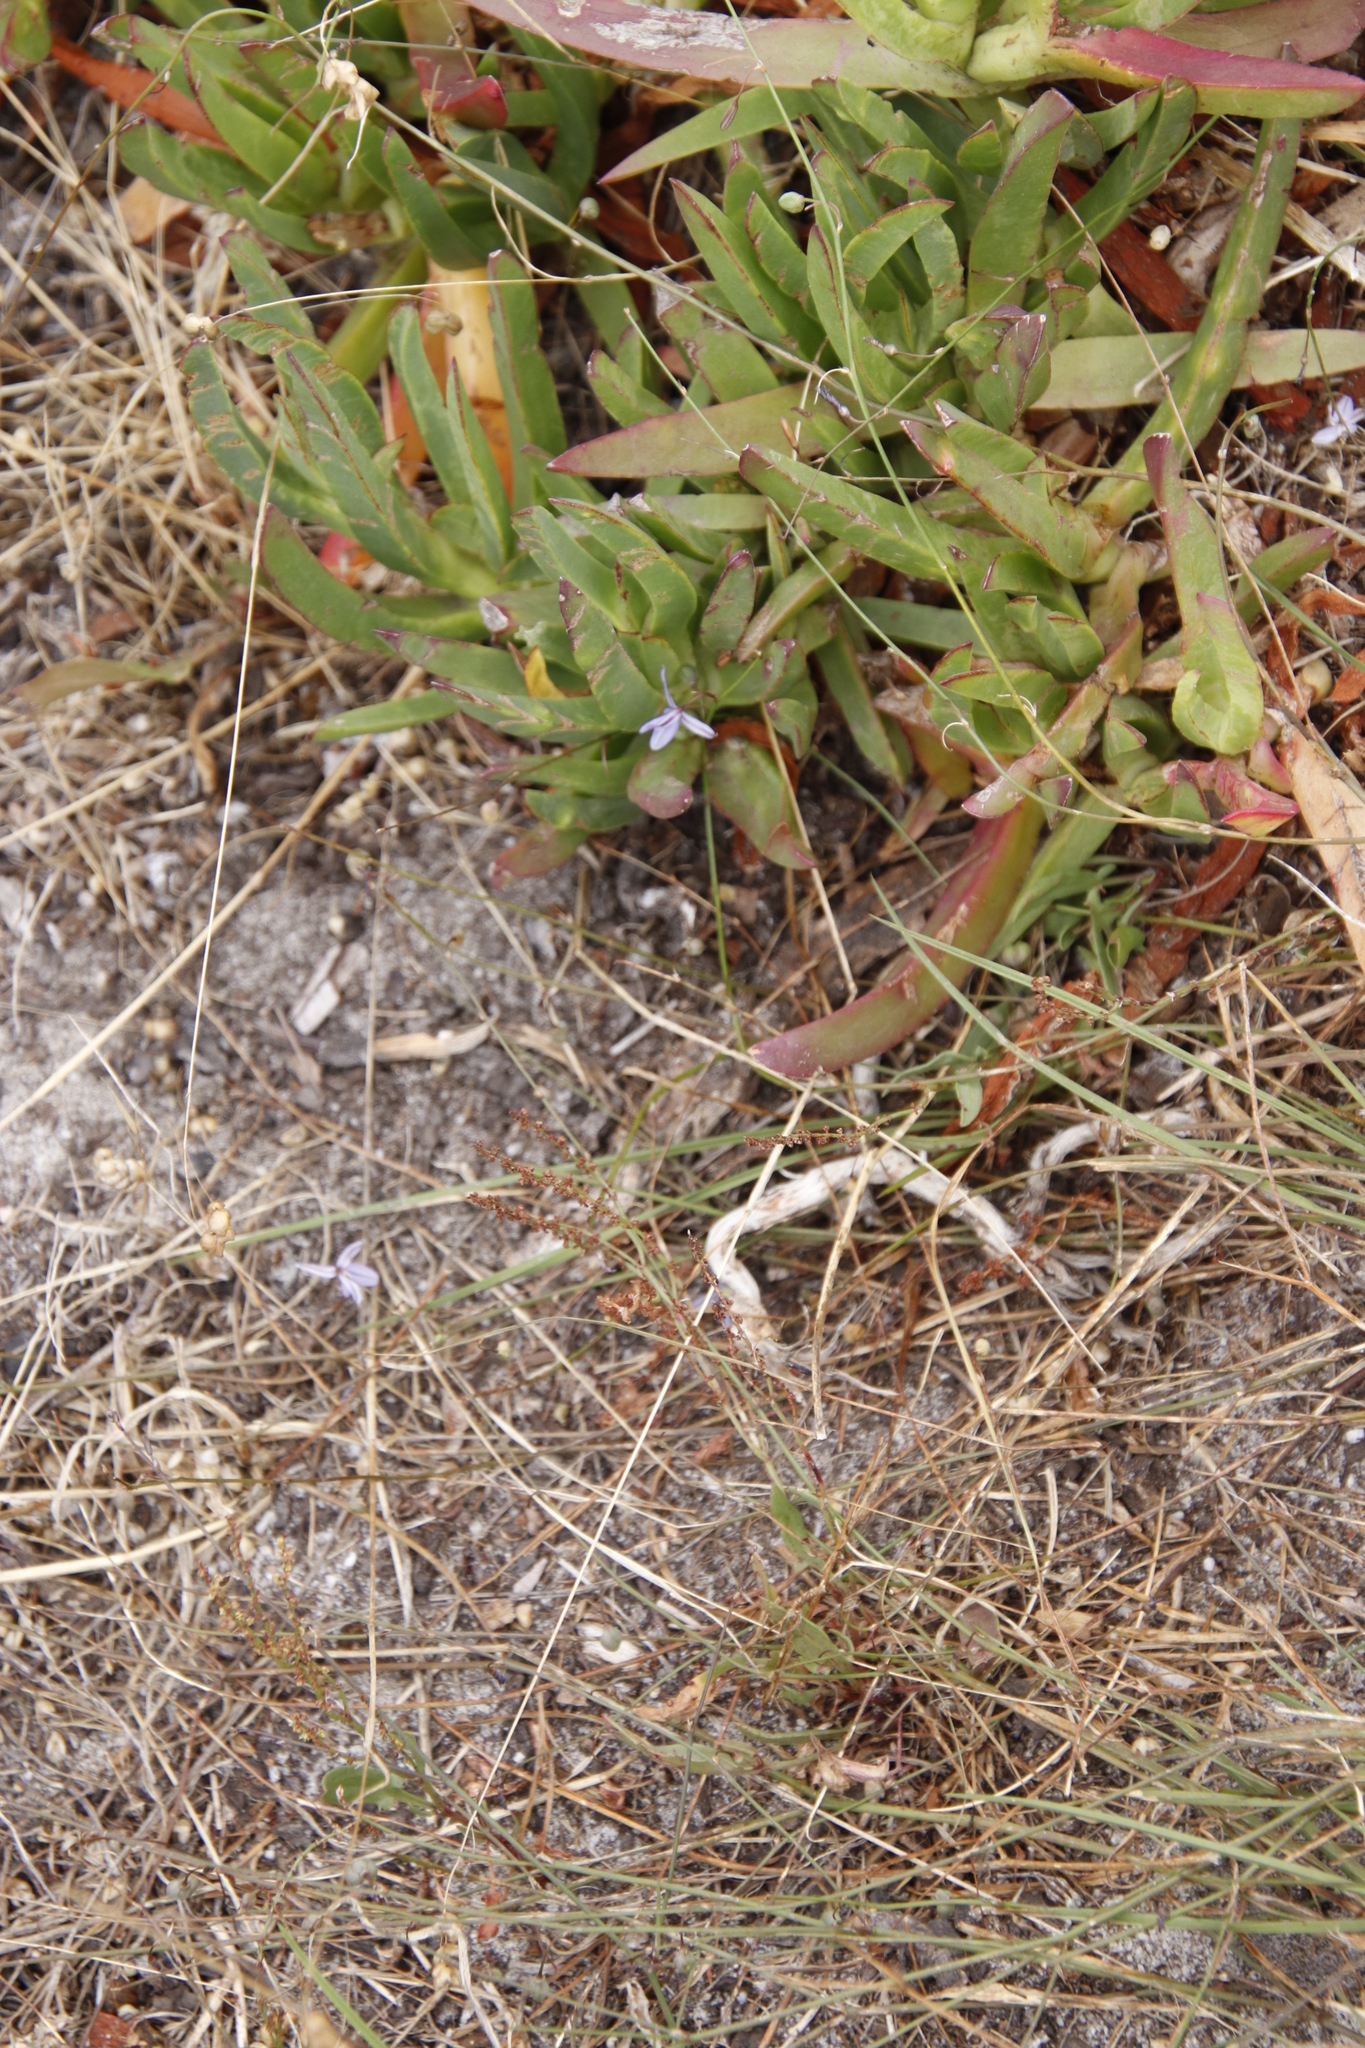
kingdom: Plantae
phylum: Tracheophyta
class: Liliopsida
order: Asparagales
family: Asphodelaceae
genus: Caesia
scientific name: Caesia contorta
